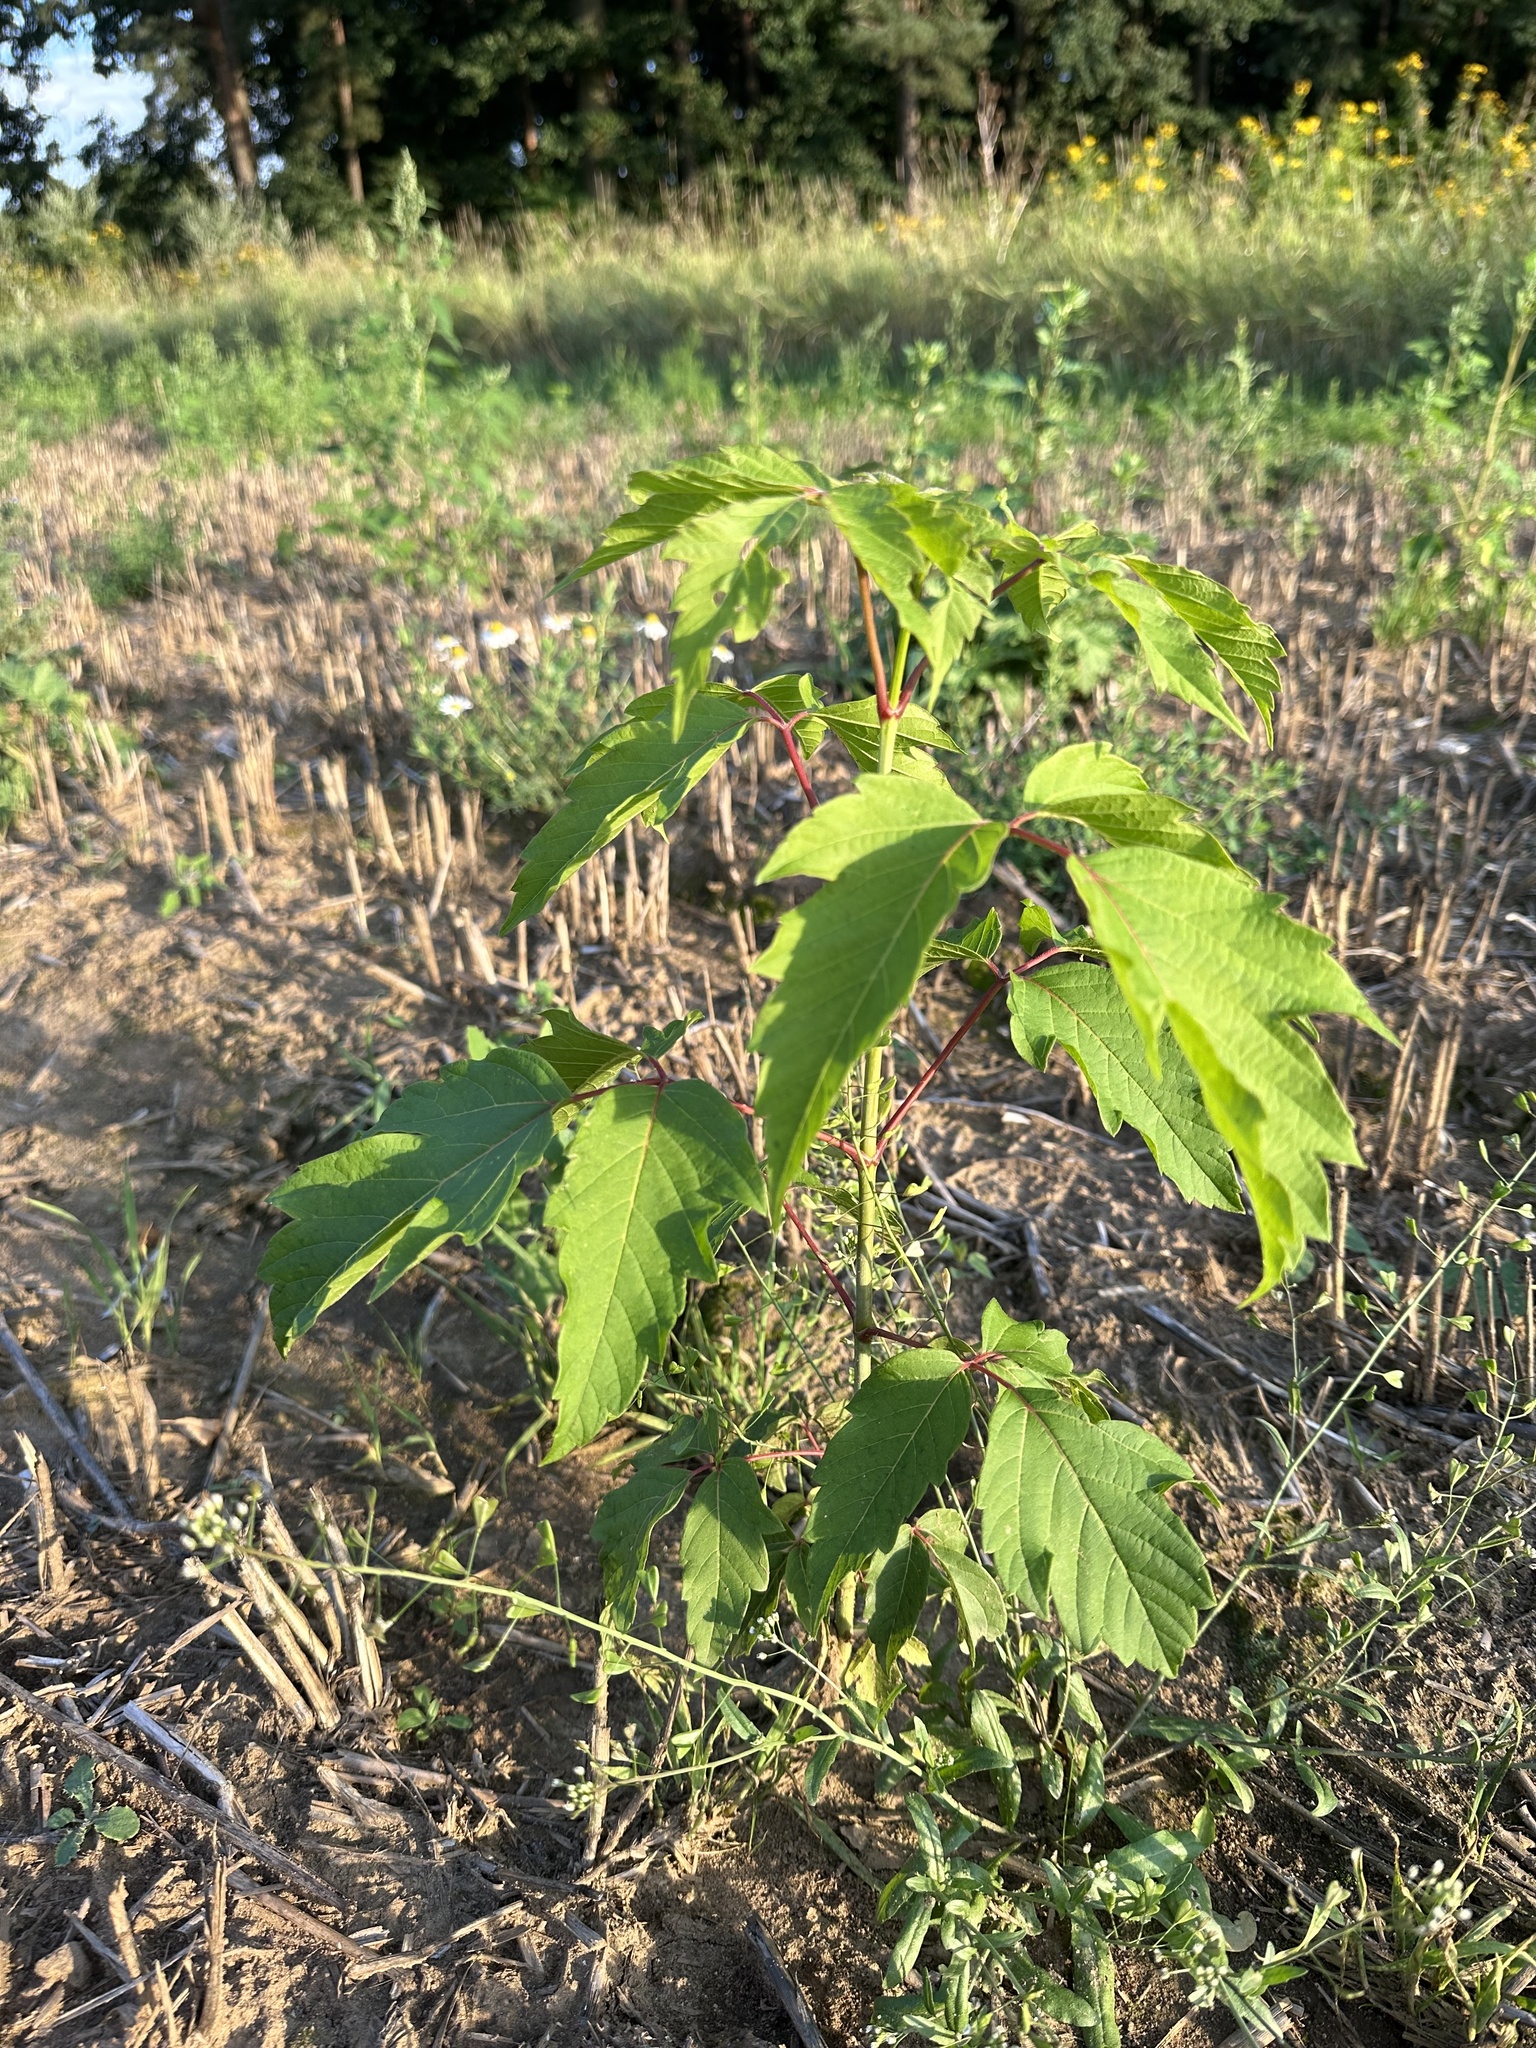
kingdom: Plantae
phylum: Tracheophyta
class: Magnoliopsida
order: Sapindales
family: Sapindaceae
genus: Acer
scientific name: Acer negundo
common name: Ashleaf maple
